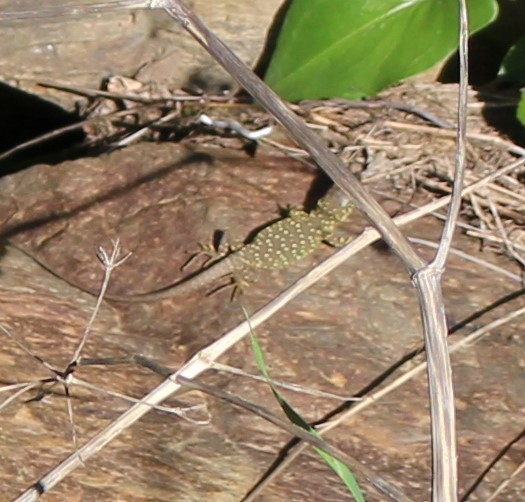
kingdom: Animalia
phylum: Chordata
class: Squamata
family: Lacertidae
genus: Timon
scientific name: Timon lepidus
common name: Ocellated lizard
